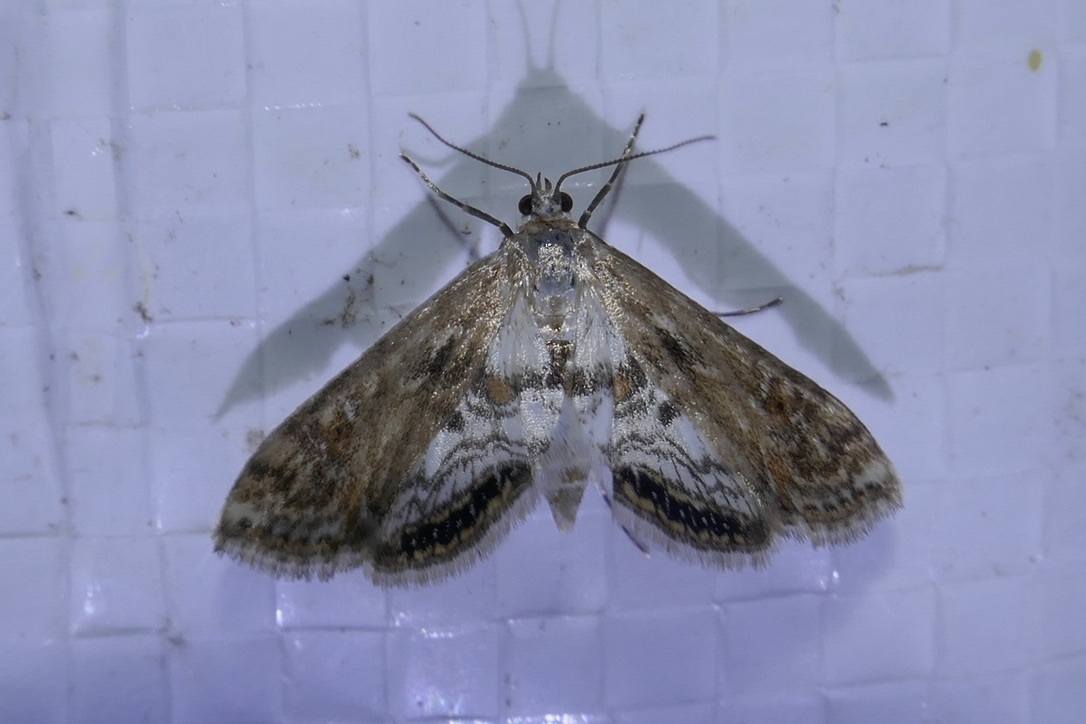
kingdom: Animalia
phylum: Arthropoda
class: Insecta
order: Lepidoptera
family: Crambidae
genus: Cataclysta
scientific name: Cataclysta lemnata
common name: Small china-mark
